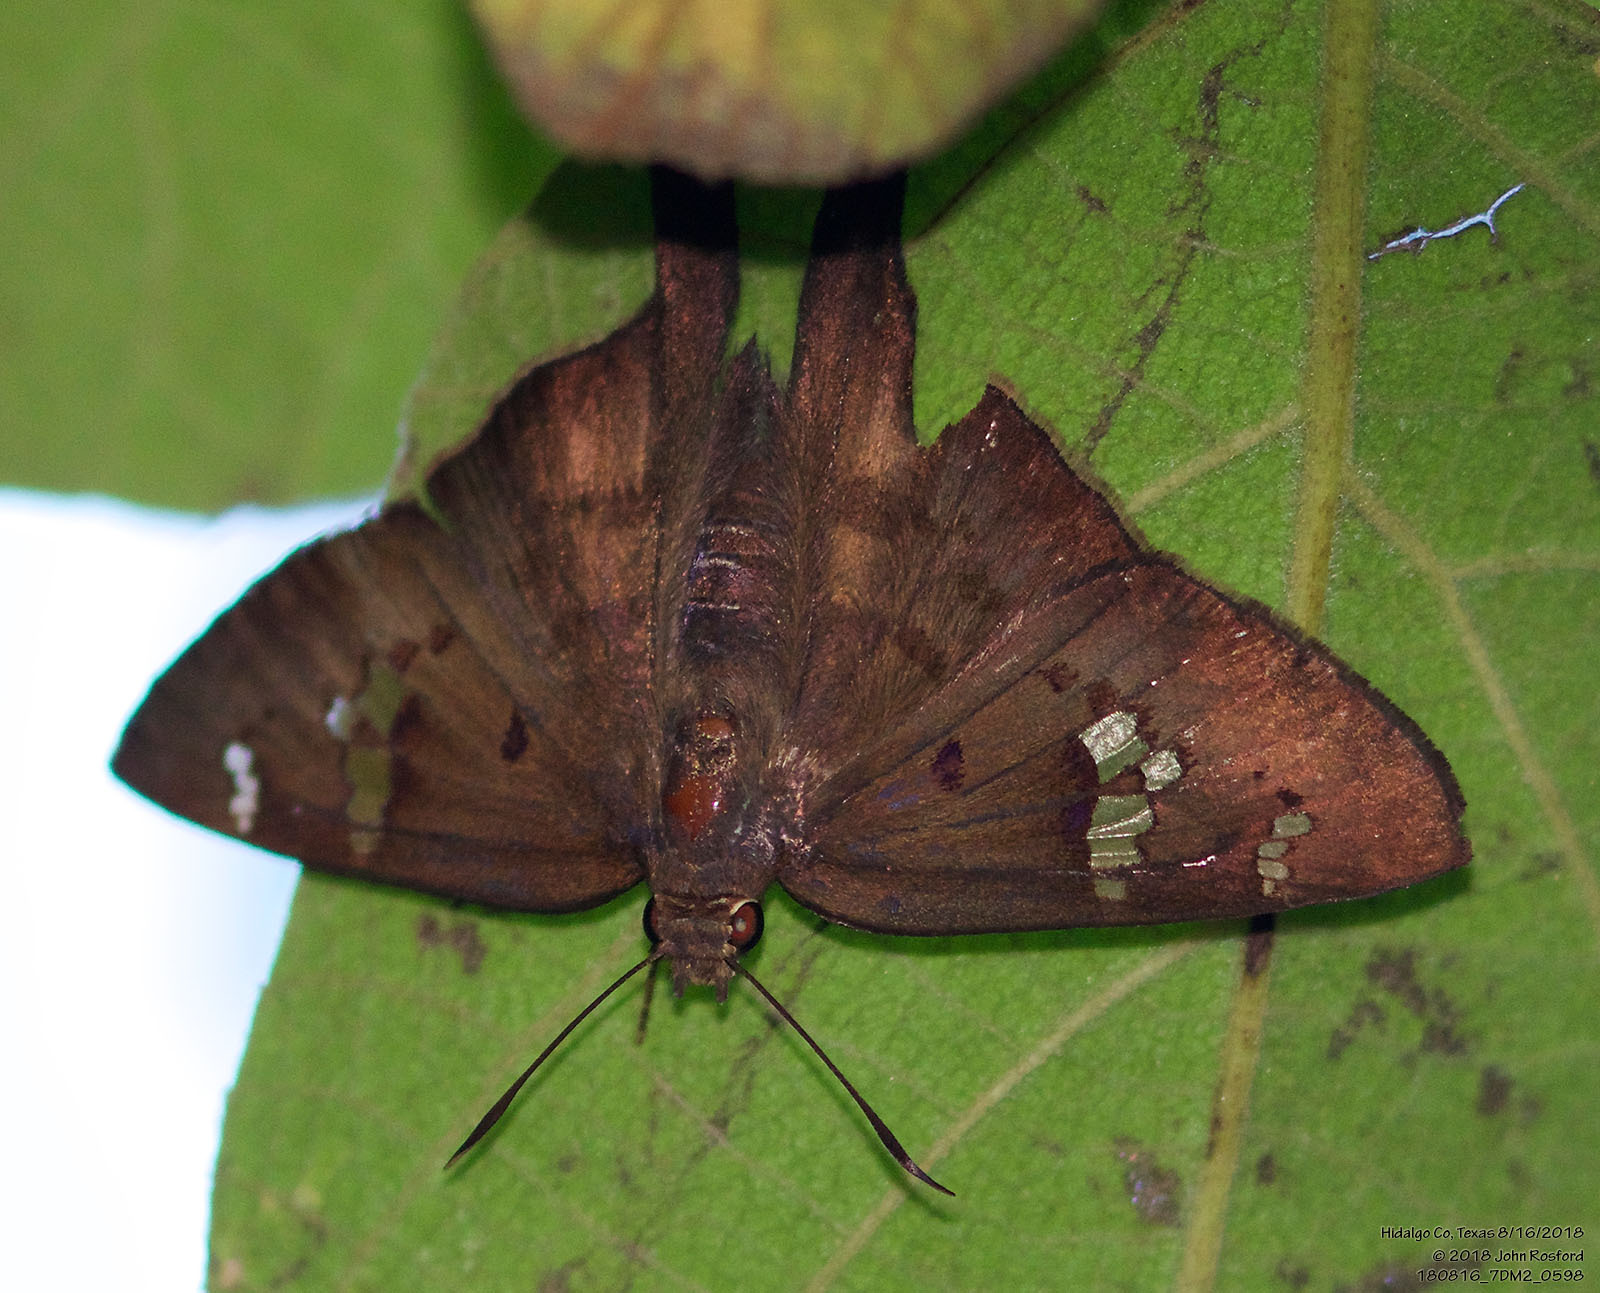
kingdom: Animalia
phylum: Arthropoda
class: Insecta
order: Lepidoptera
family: Hesperiidae
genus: Ectomis
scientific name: Ectomis
